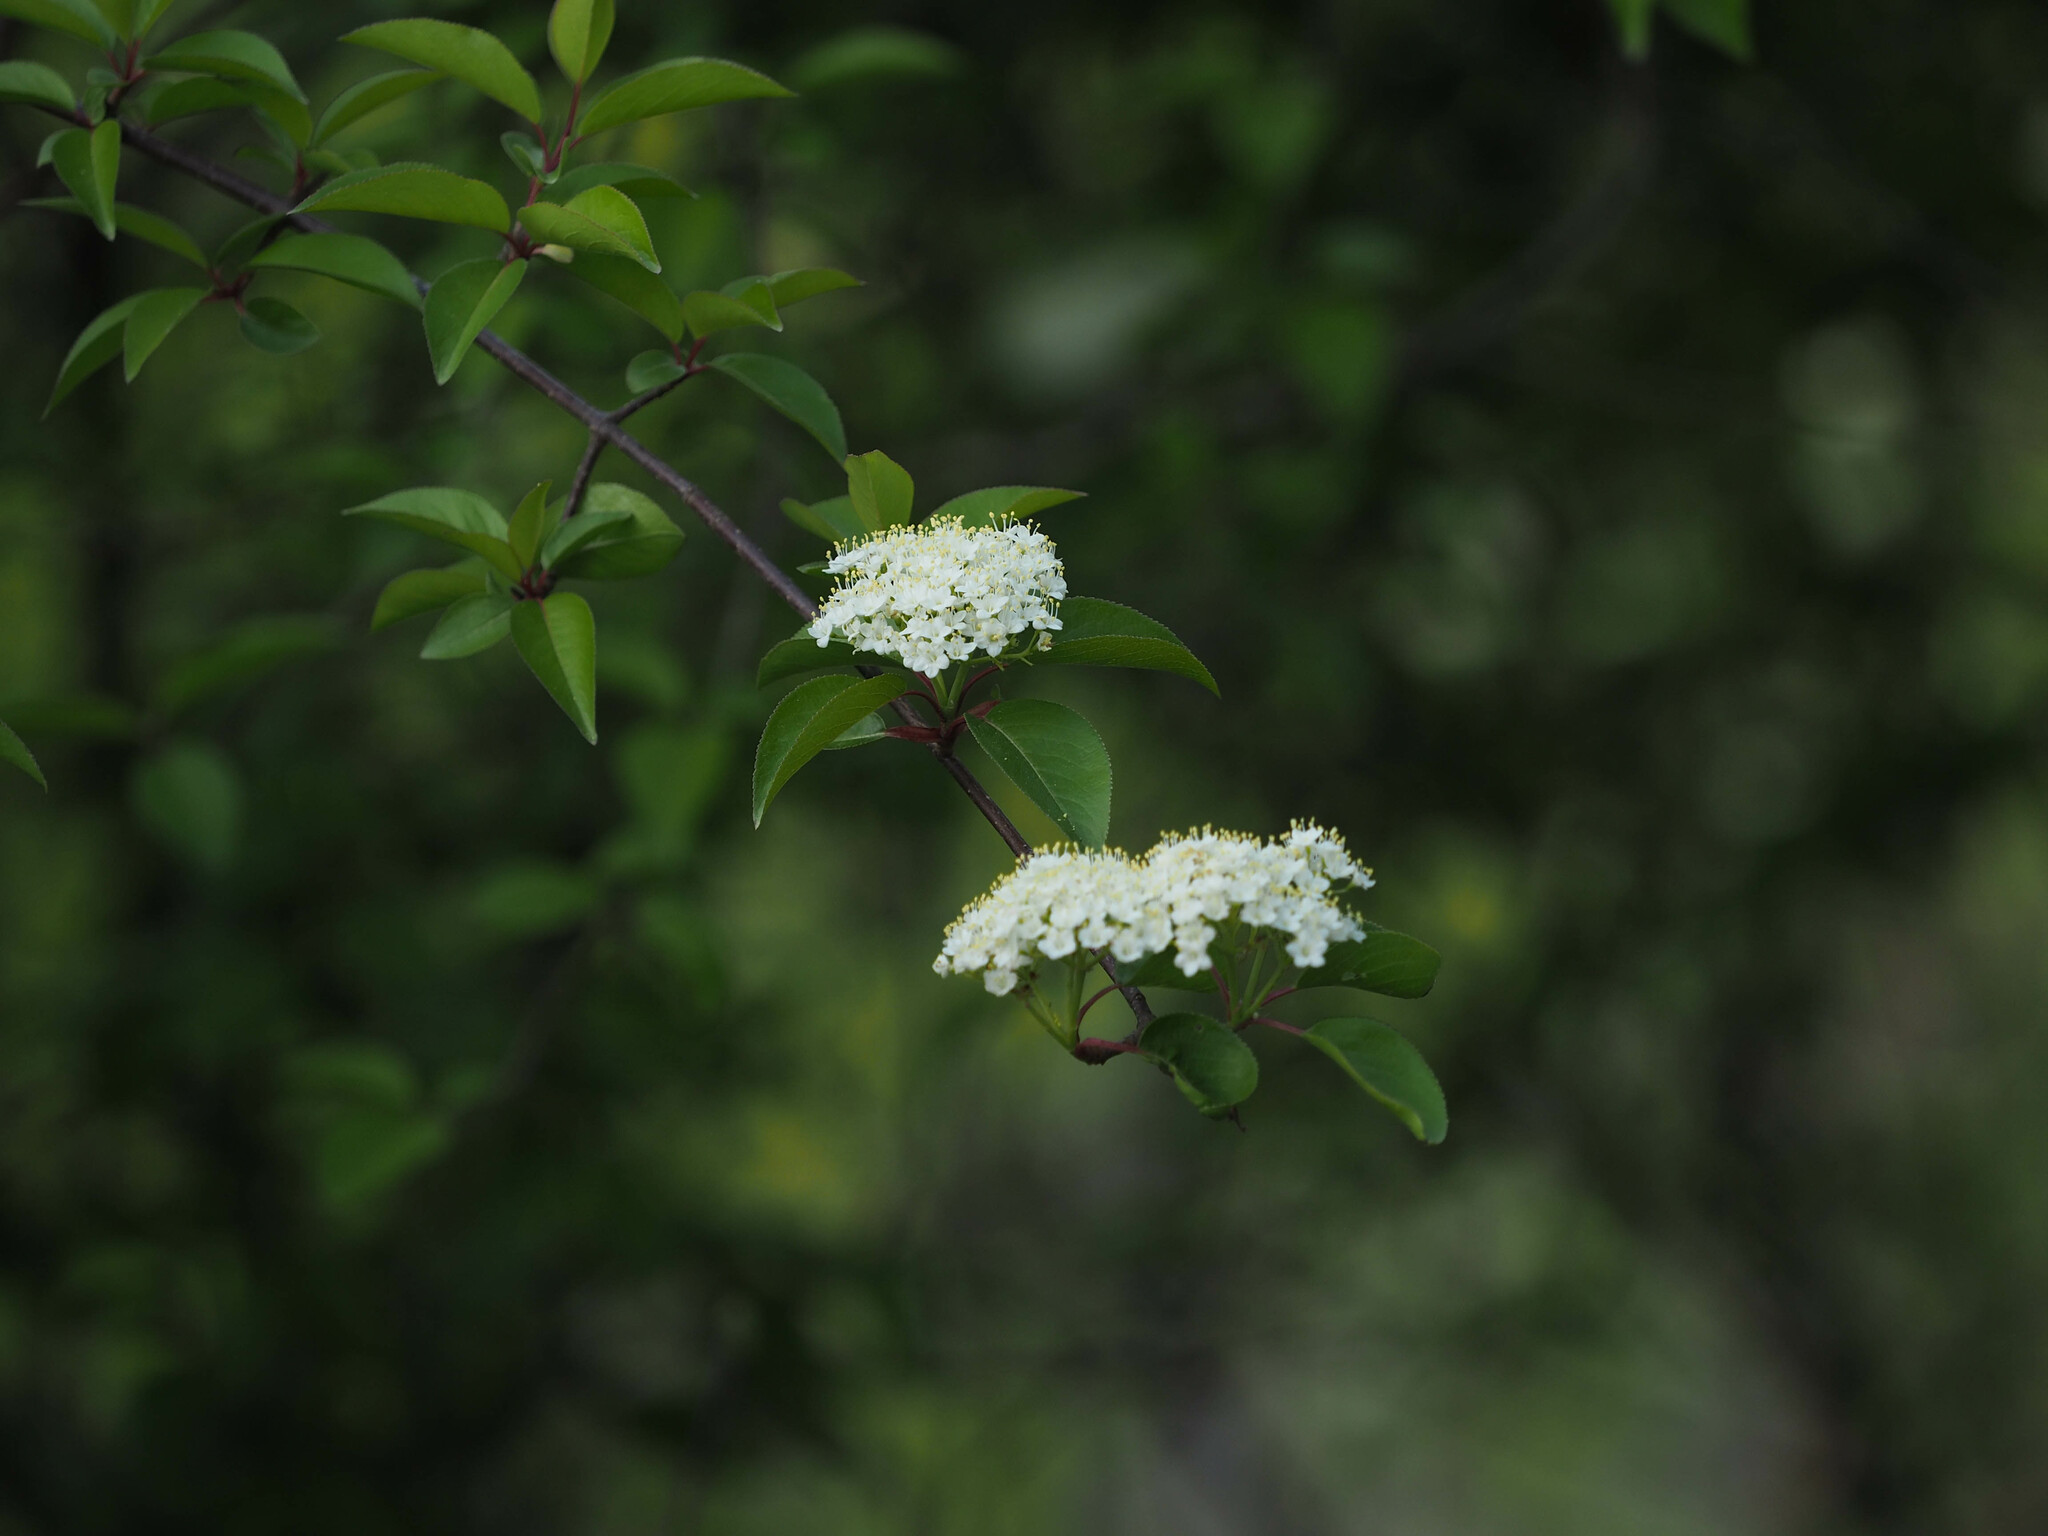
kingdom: Plantae
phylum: Tracheophyta
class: Magnoliopsida
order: Dipsacales
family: Viburnaceae
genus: Viburnum
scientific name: Viburnum prunifolium
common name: Black haw
